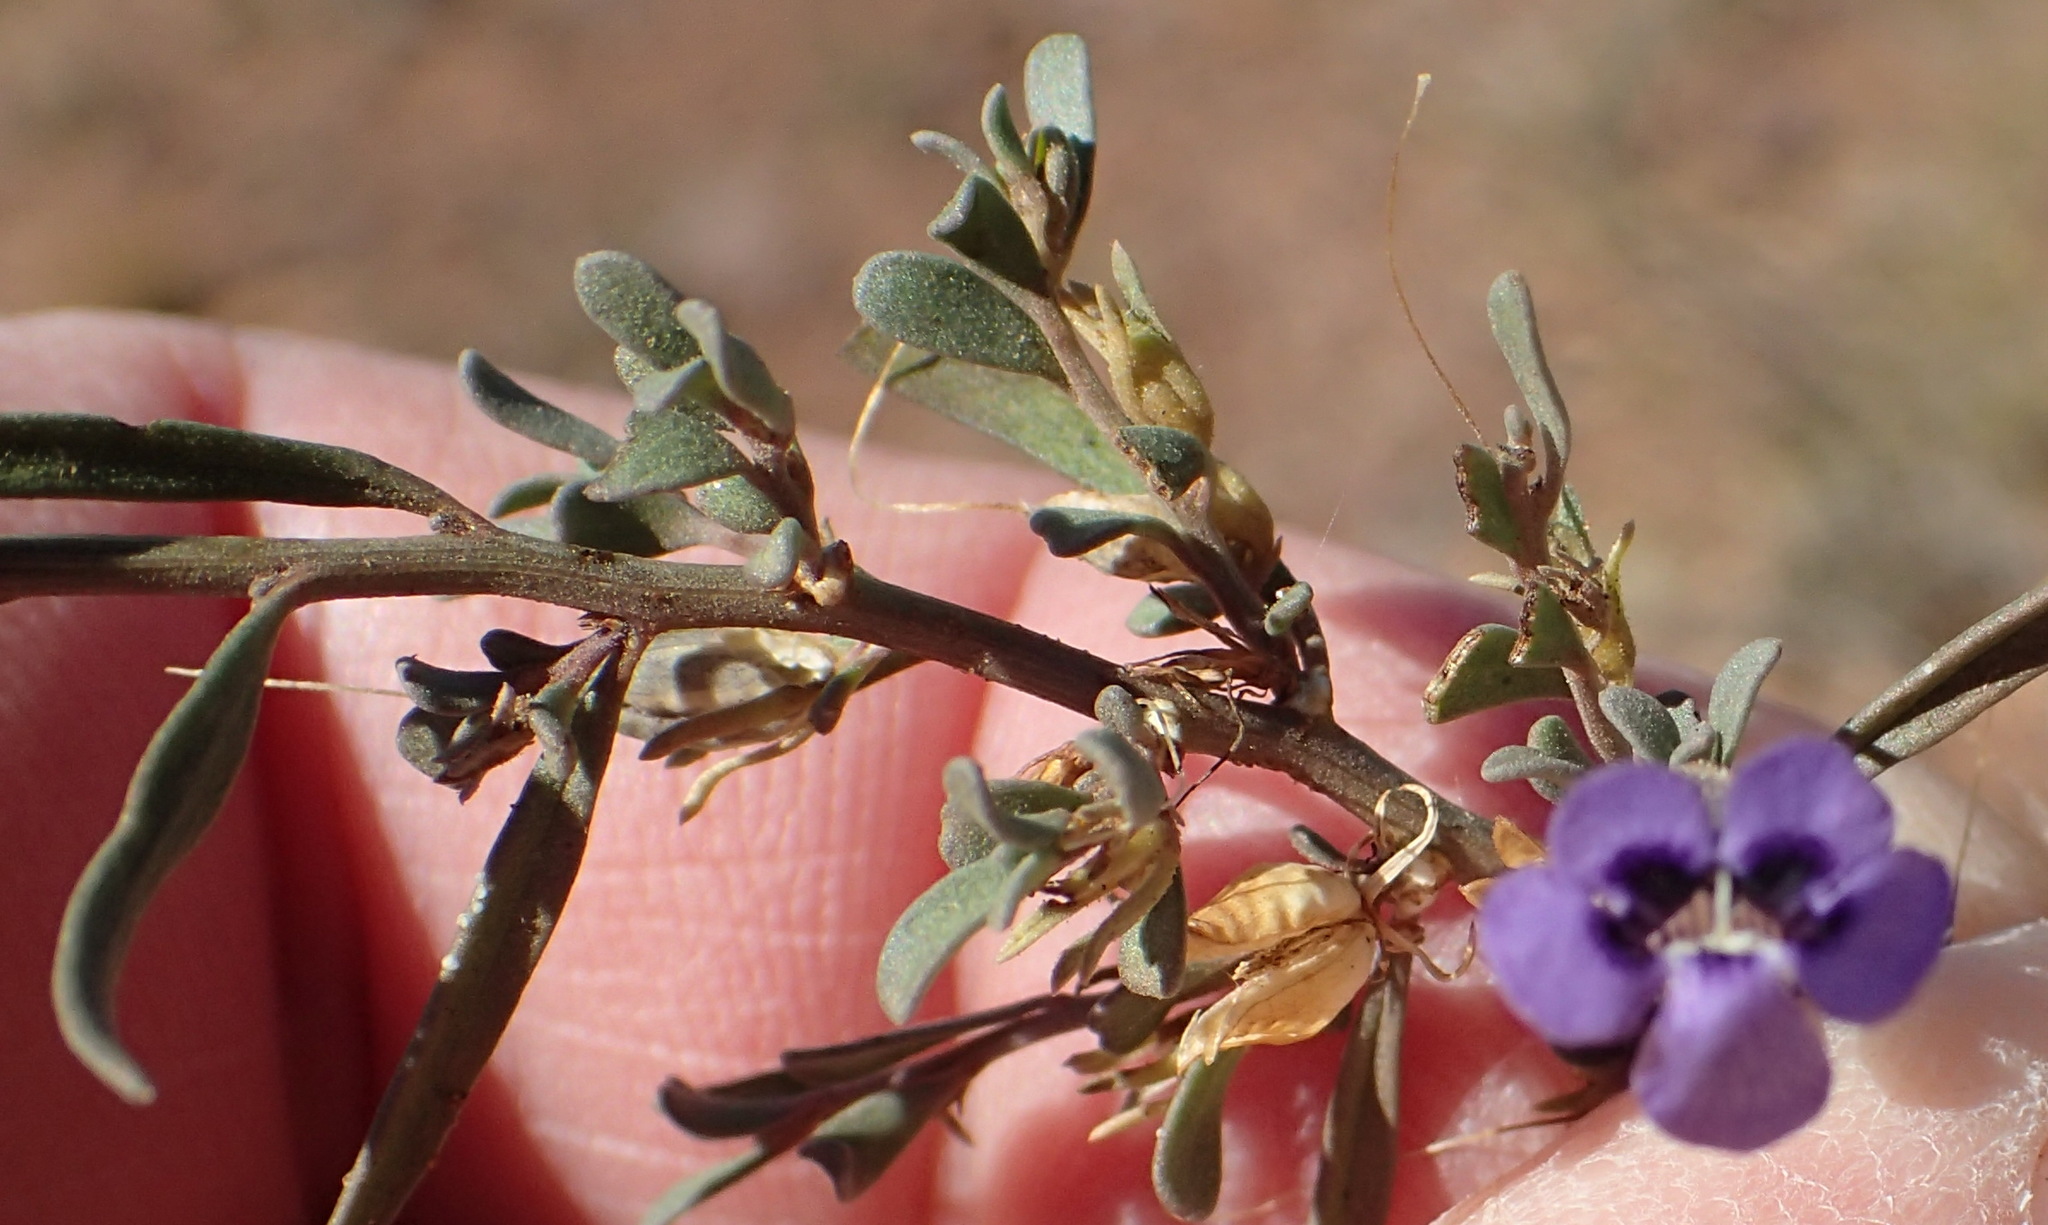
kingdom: Plantae
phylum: Tracheophyta
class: Magnoliopsida
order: Lamiales
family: Scrophulariaceae
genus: Peliostomum
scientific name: Peliostomum leucorrhizum
